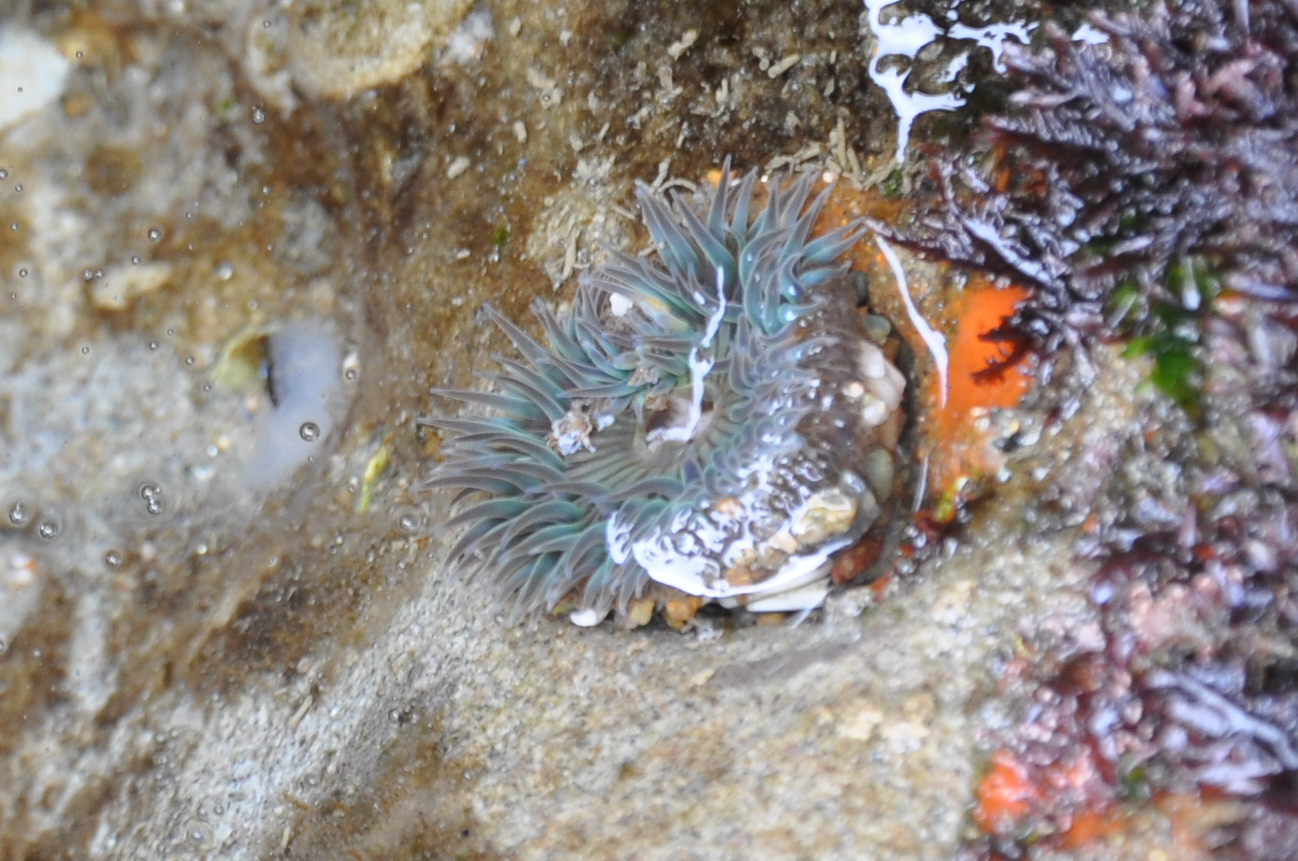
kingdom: Animalia
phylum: Cnidaria
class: Anthozoa
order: Actiniaria
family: Actiniidae
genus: Anthopleura
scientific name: Anthopleura sola
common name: Sun anemone
